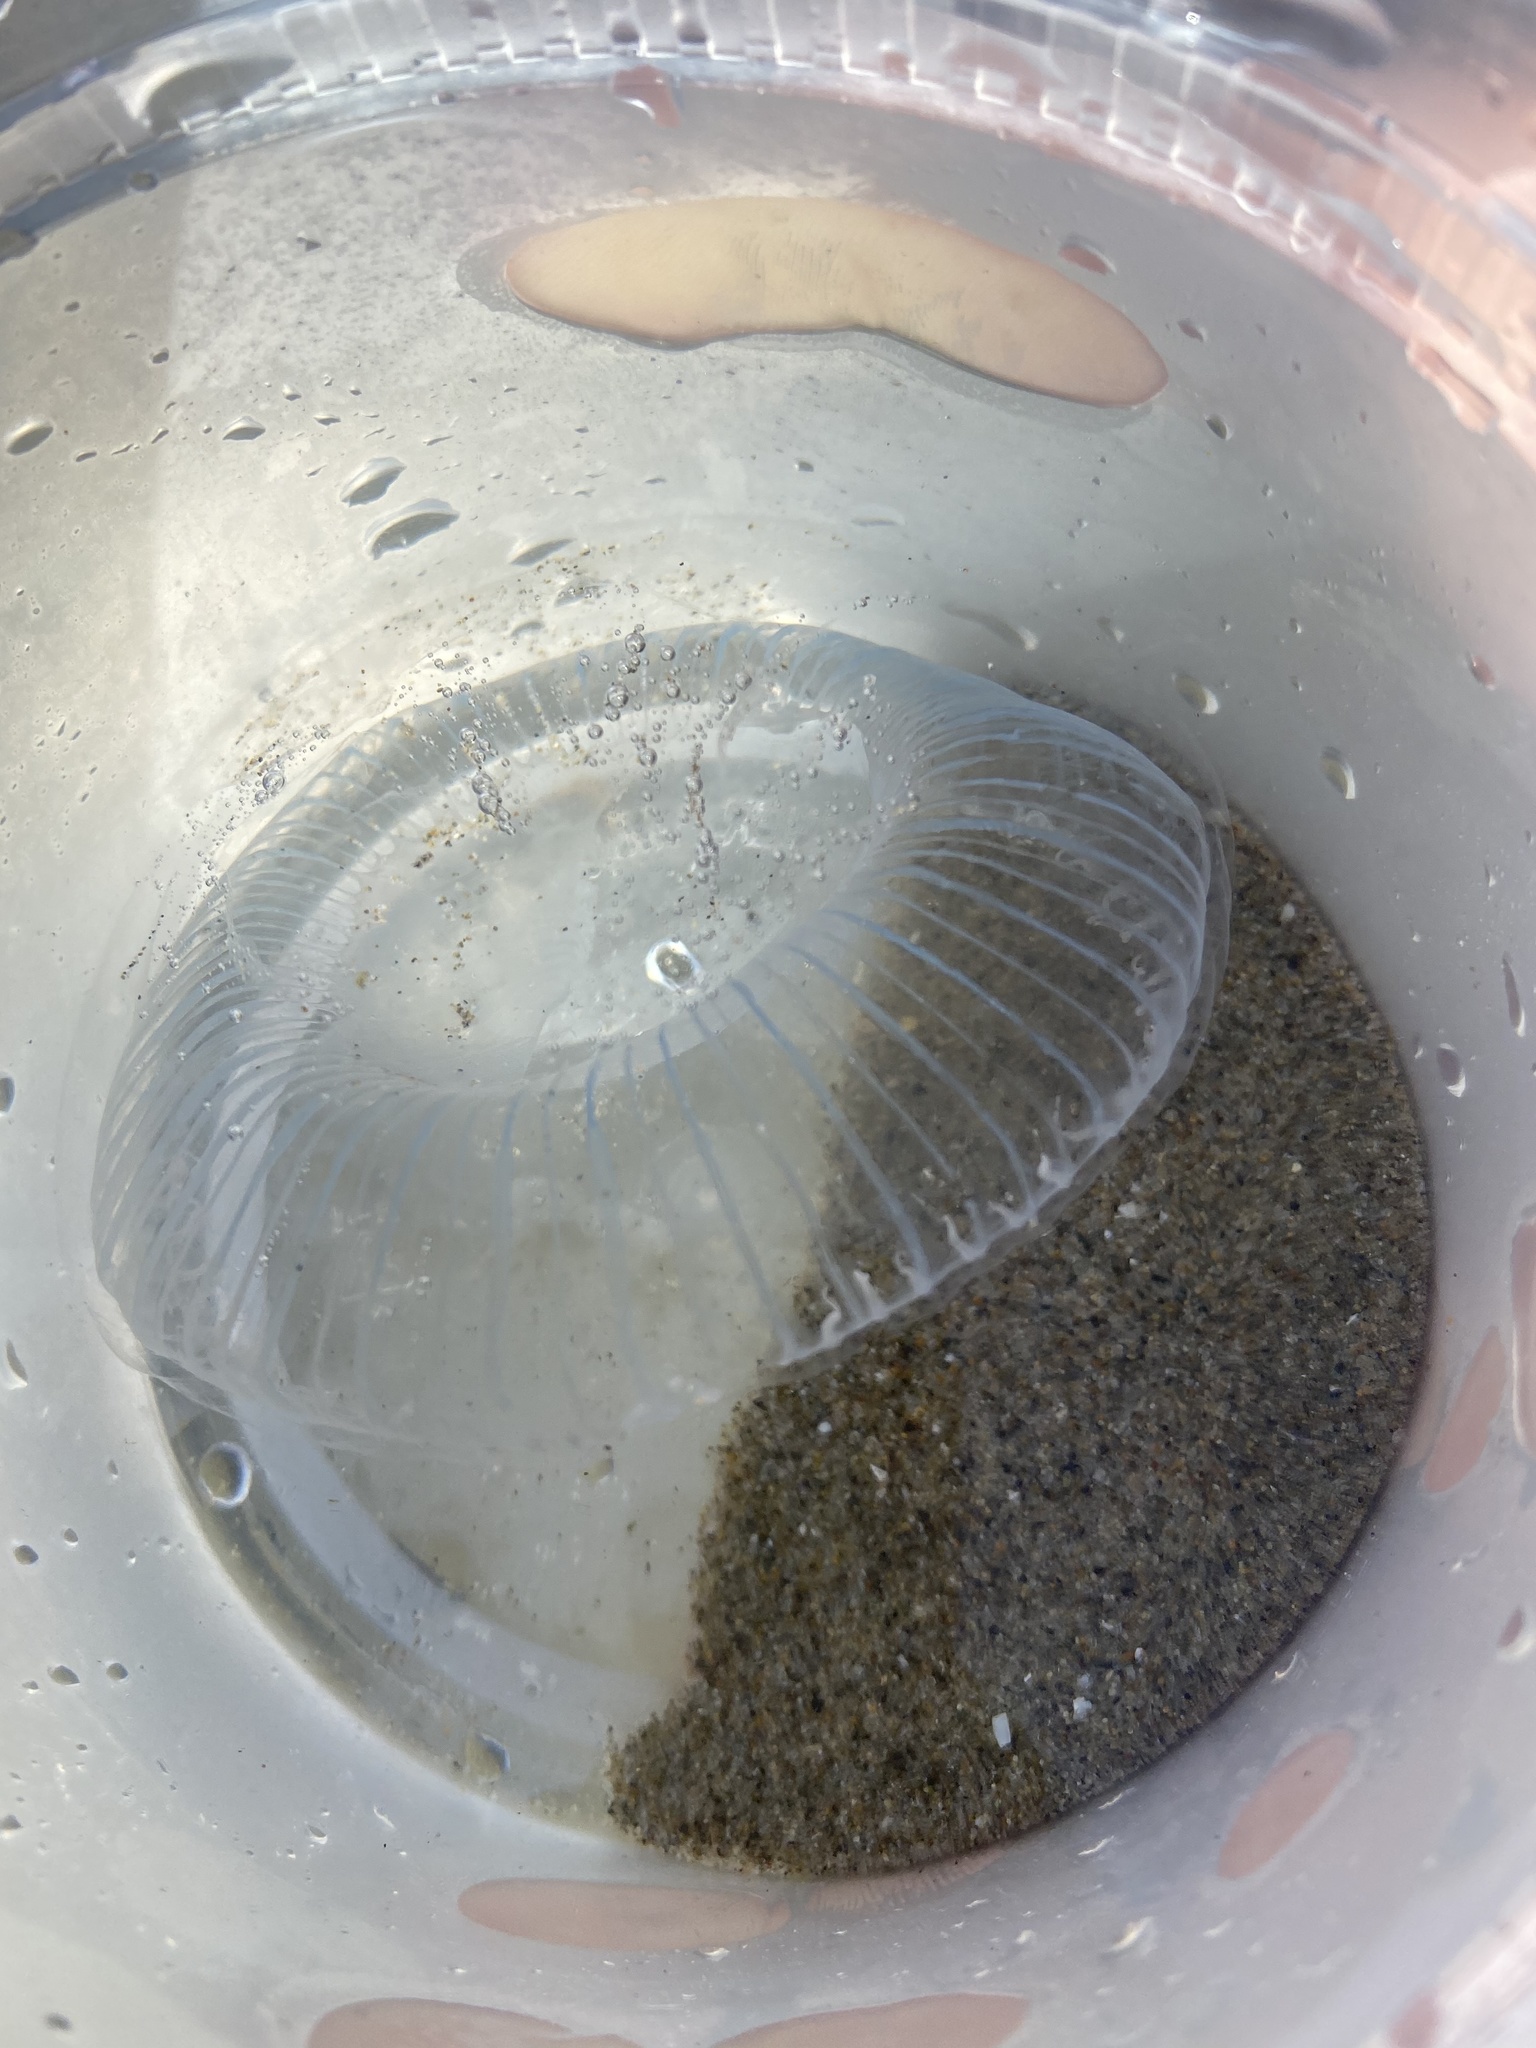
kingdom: Animalia
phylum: Cnidaria
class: Hydrozoa
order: Leptothecata
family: Aequoreidae
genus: Aequorea
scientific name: Aequorea victoria
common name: Water jellyfish
